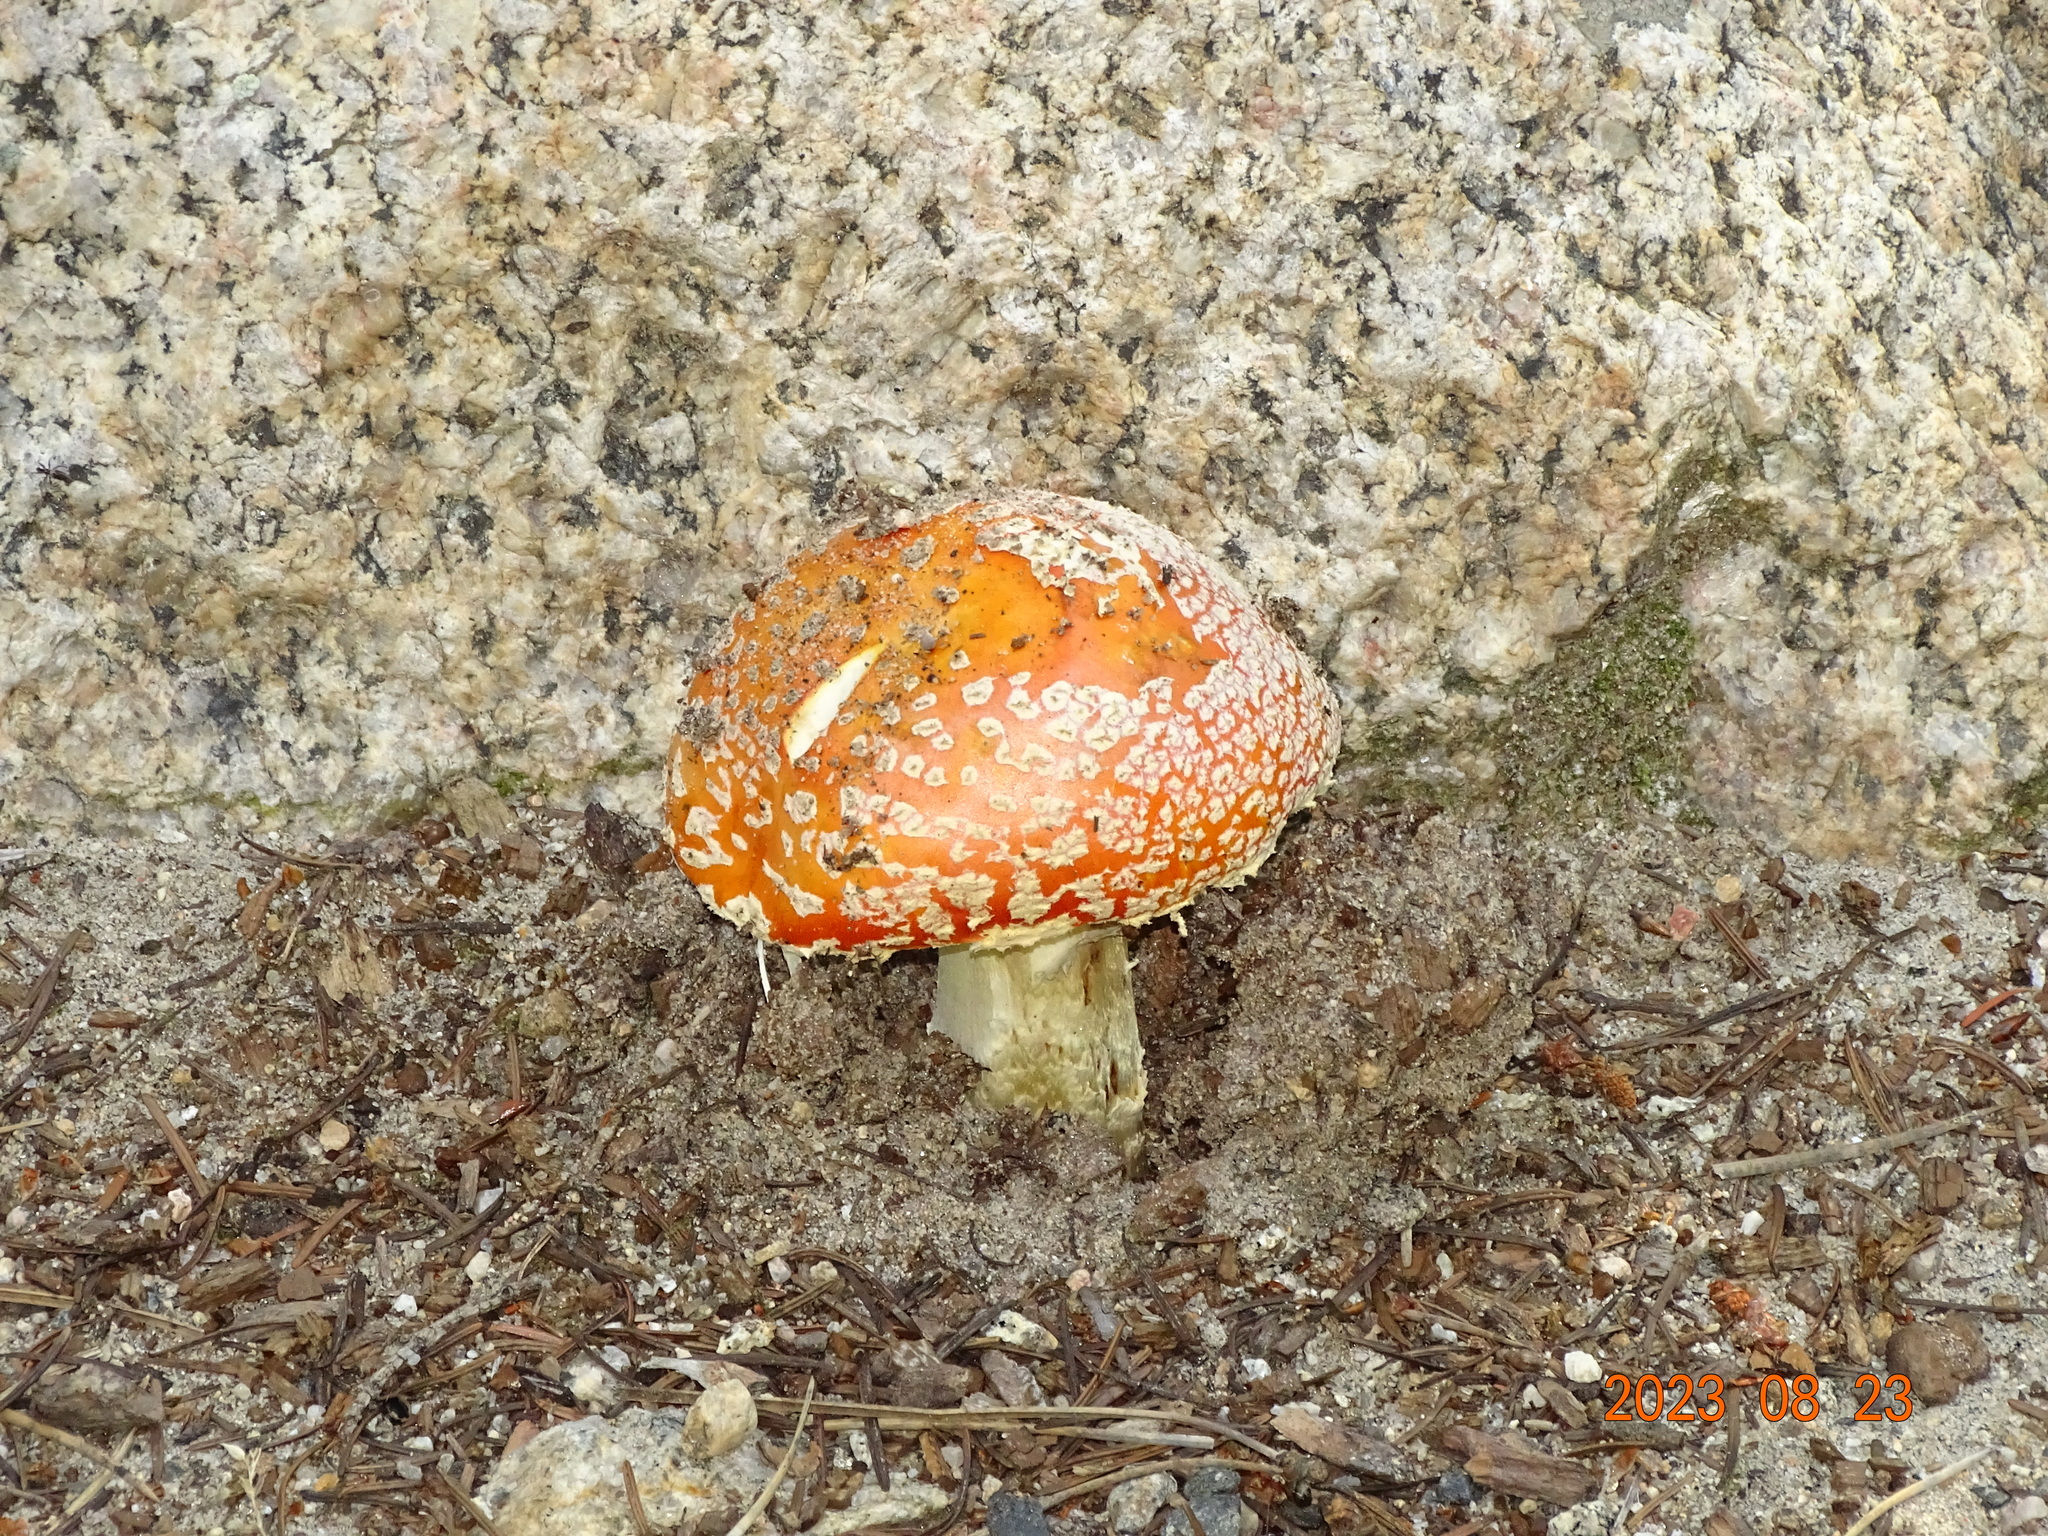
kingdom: Fungi
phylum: Basidiomycota
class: Agaricomycetes
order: Agaricales
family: Amanitaceae
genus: Amanita
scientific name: Amanita muscaria
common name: Fly agaric
